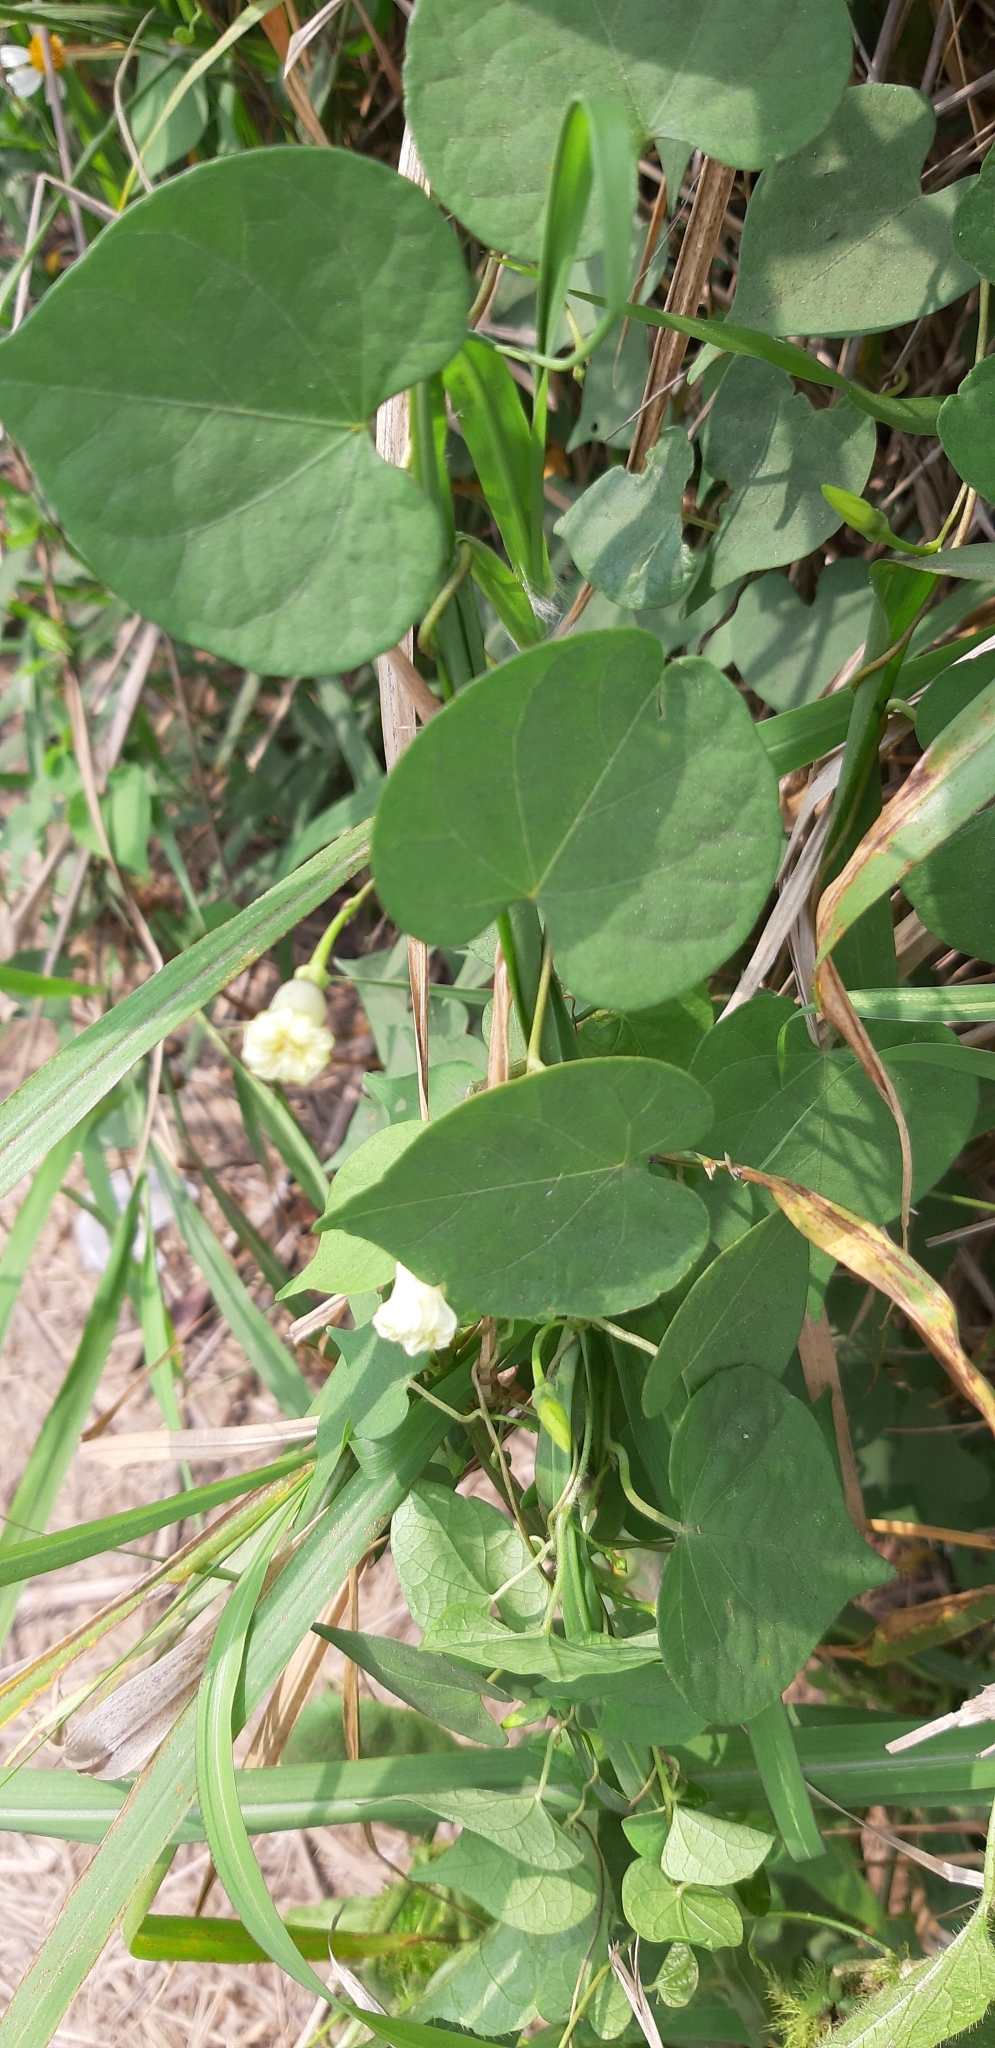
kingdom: Plantae
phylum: Tracheophyta
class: Magnoliopsida
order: Solanales
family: Convolvulaceae
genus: Ipomoea
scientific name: Ipomoea obscura
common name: Obscure morning-glory
